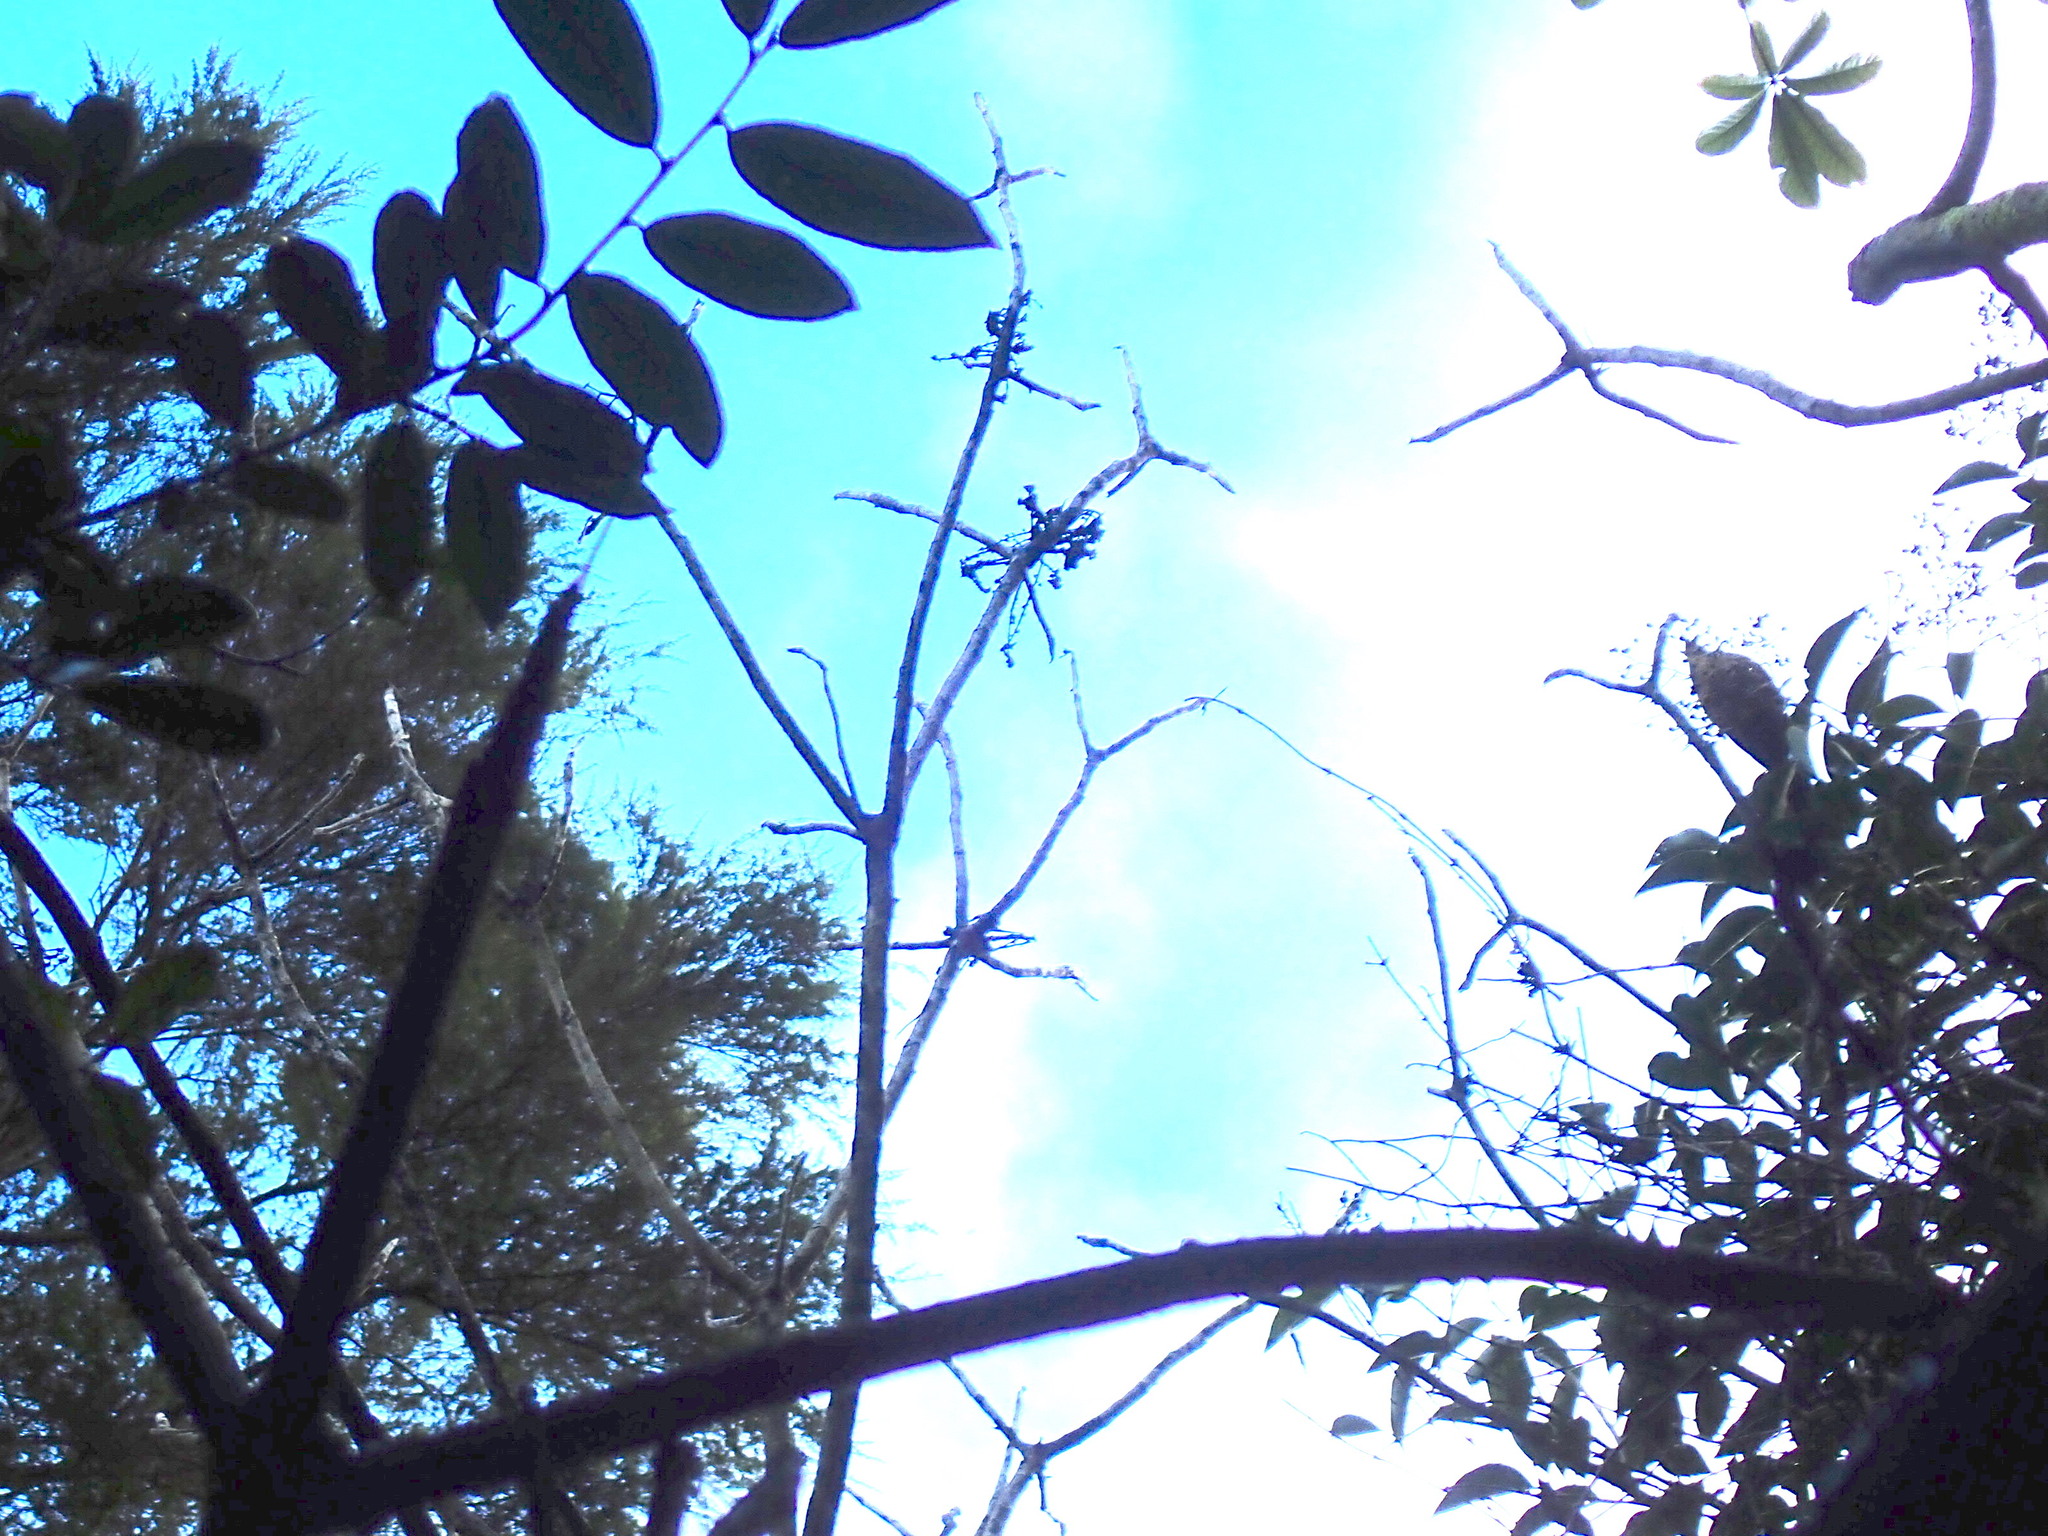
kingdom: Plantae
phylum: Tracheophyta
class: Magnoliopsida
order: Apiales
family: Araliaceae
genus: Schefflera
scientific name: Schefflera digitata
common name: Pate
